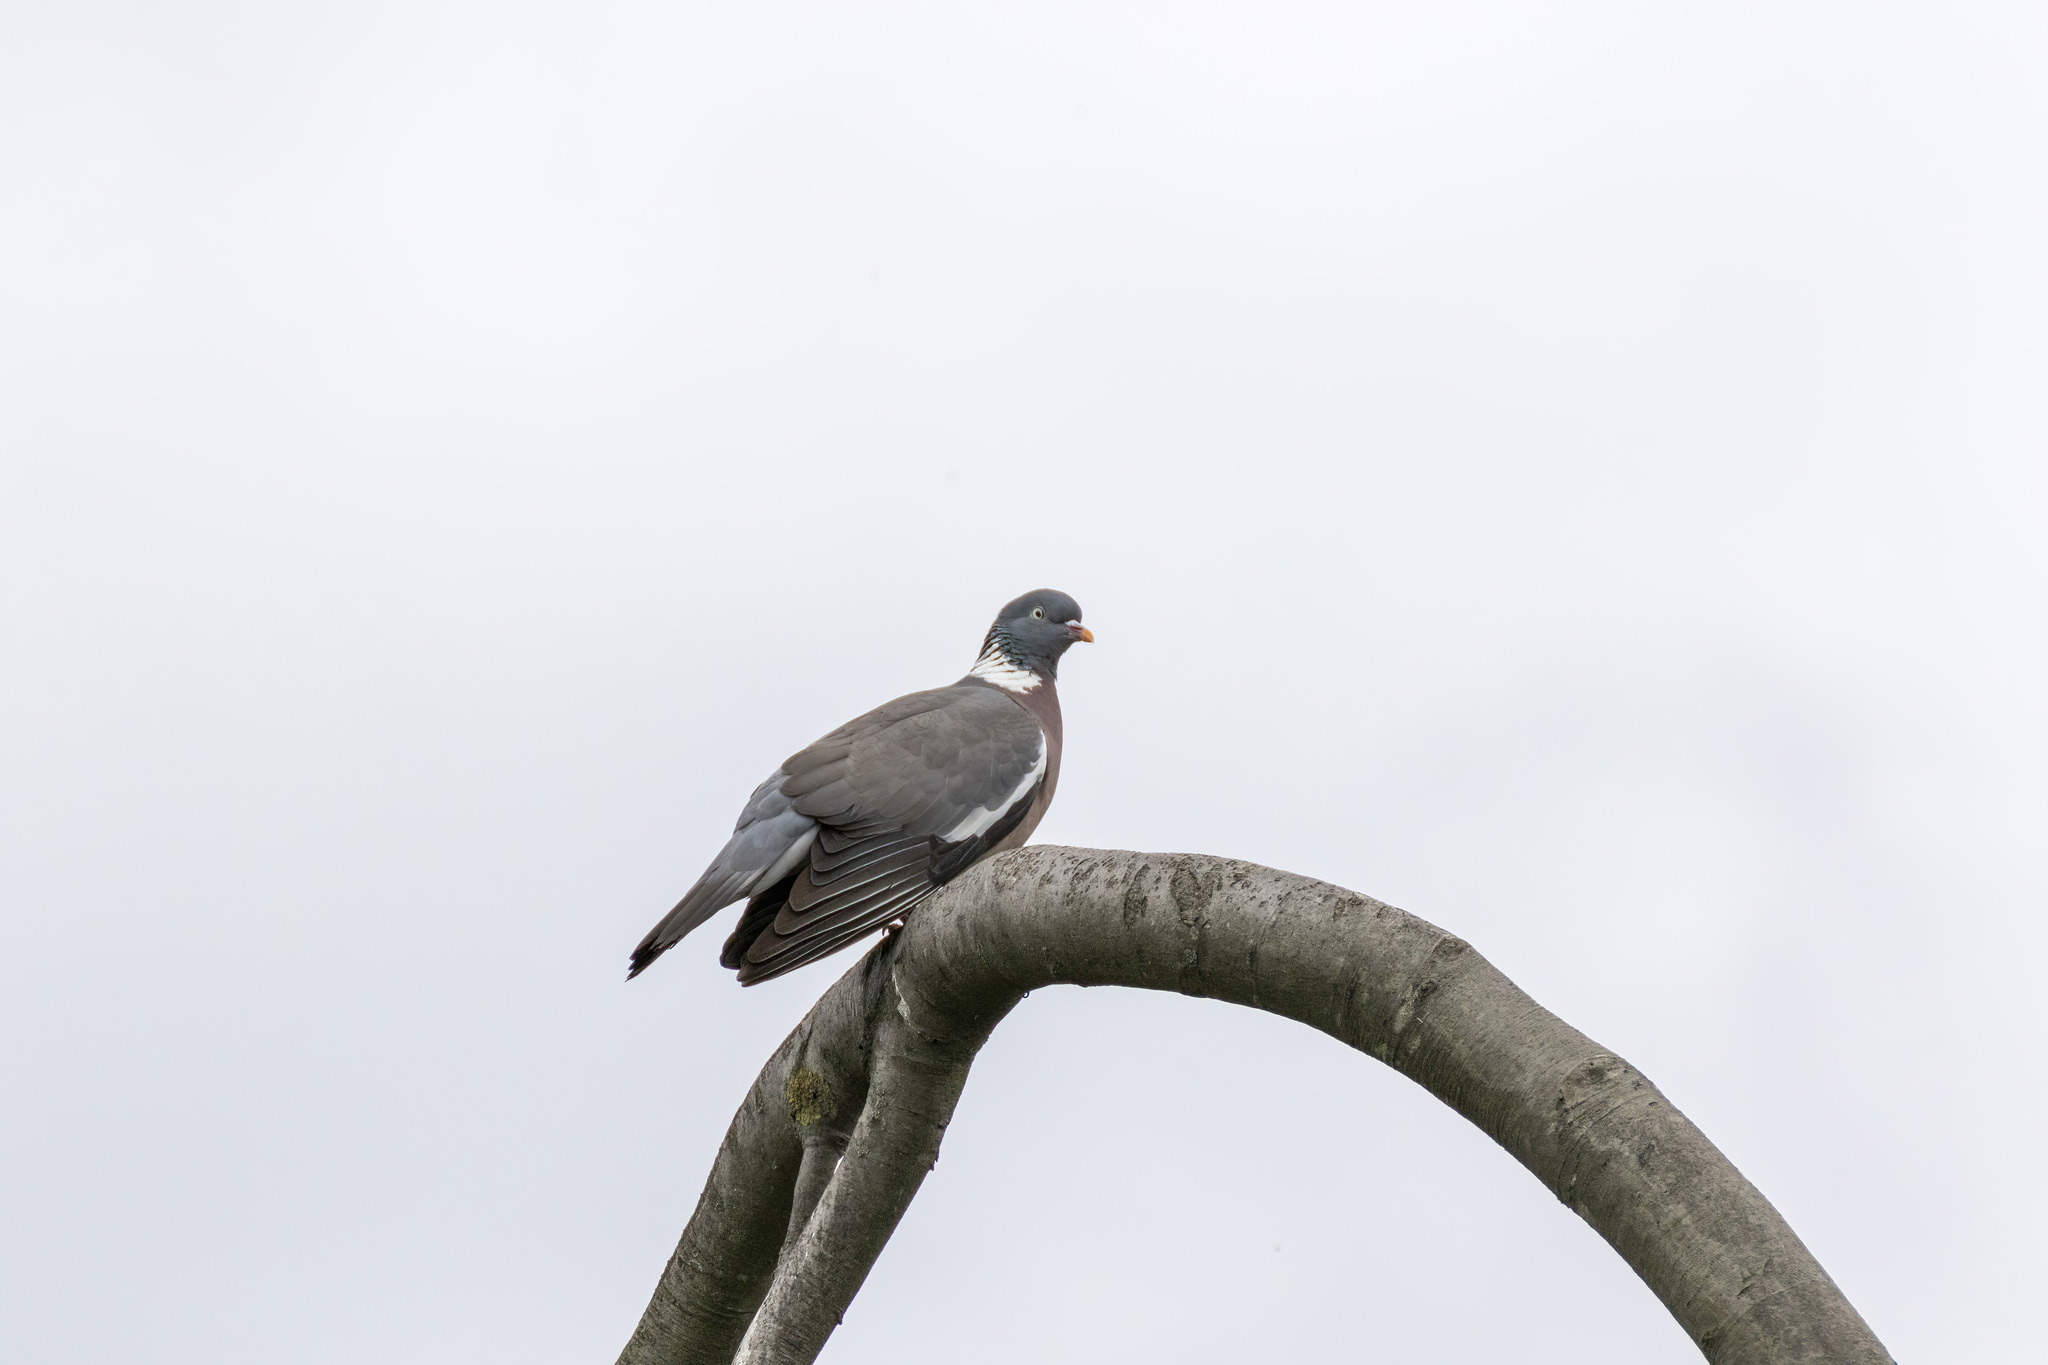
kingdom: Animalia
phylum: Chordata
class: Aves
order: Columbiformes
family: Columbidae
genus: Columba
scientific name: Columba palumbus
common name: Common wood pigeon
